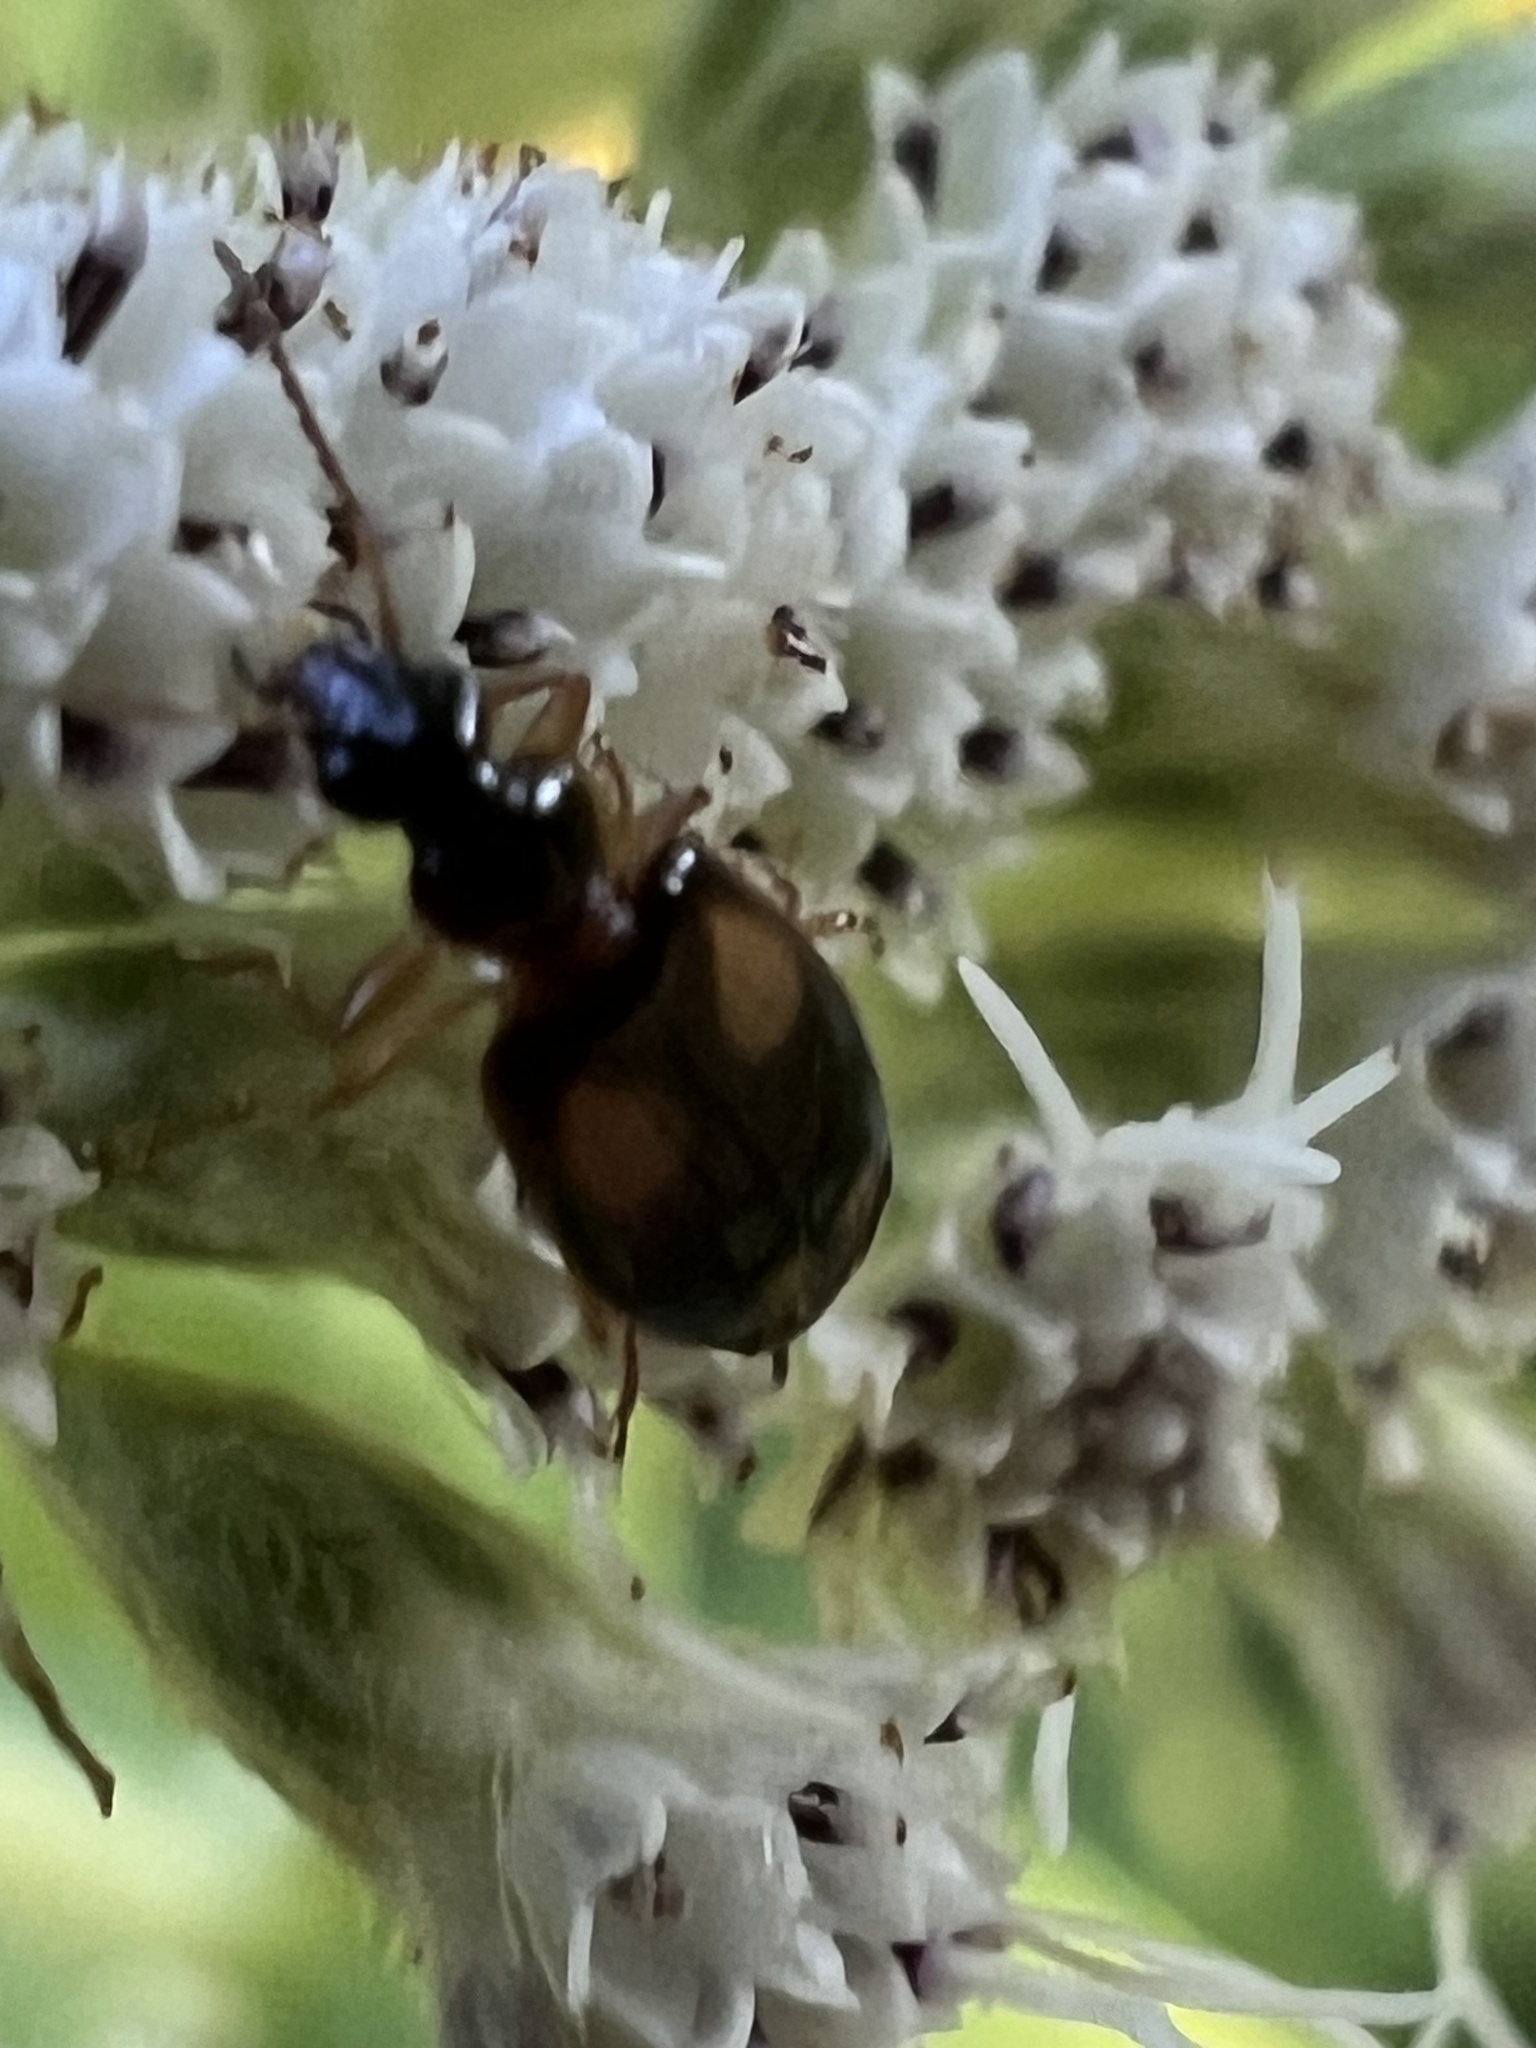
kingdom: Animalia
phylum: Arthropoda
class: Insecta
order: Coleoptera
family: Carabidae
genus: Lebia
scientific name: Lebia ornata
